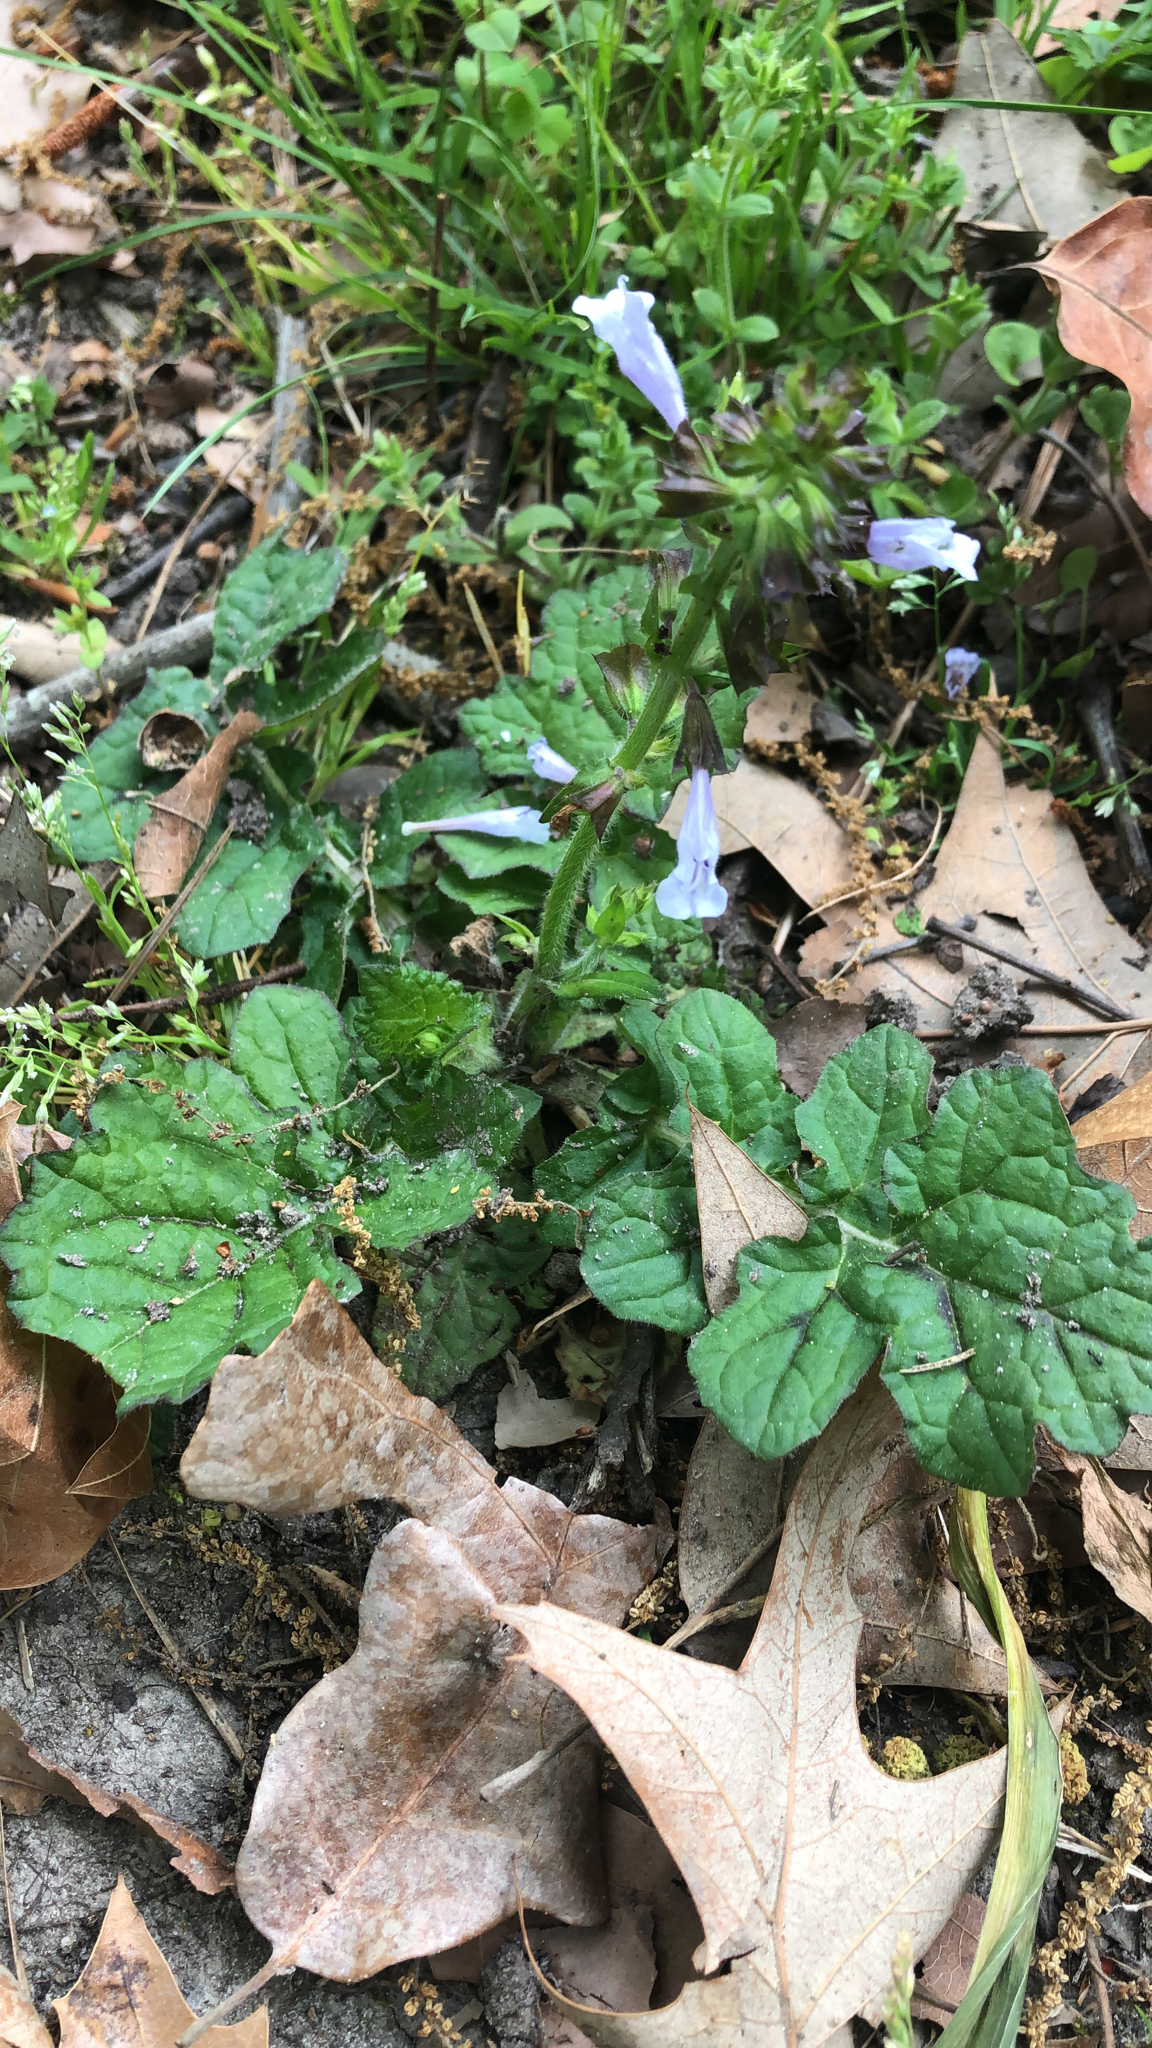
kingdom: Plantae
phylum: Tracheophyta
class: Magnoliopsida
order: Lamiales
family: Lamiaceae
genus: Salvia
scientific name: Salvia lyrata
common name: Cancerweed
